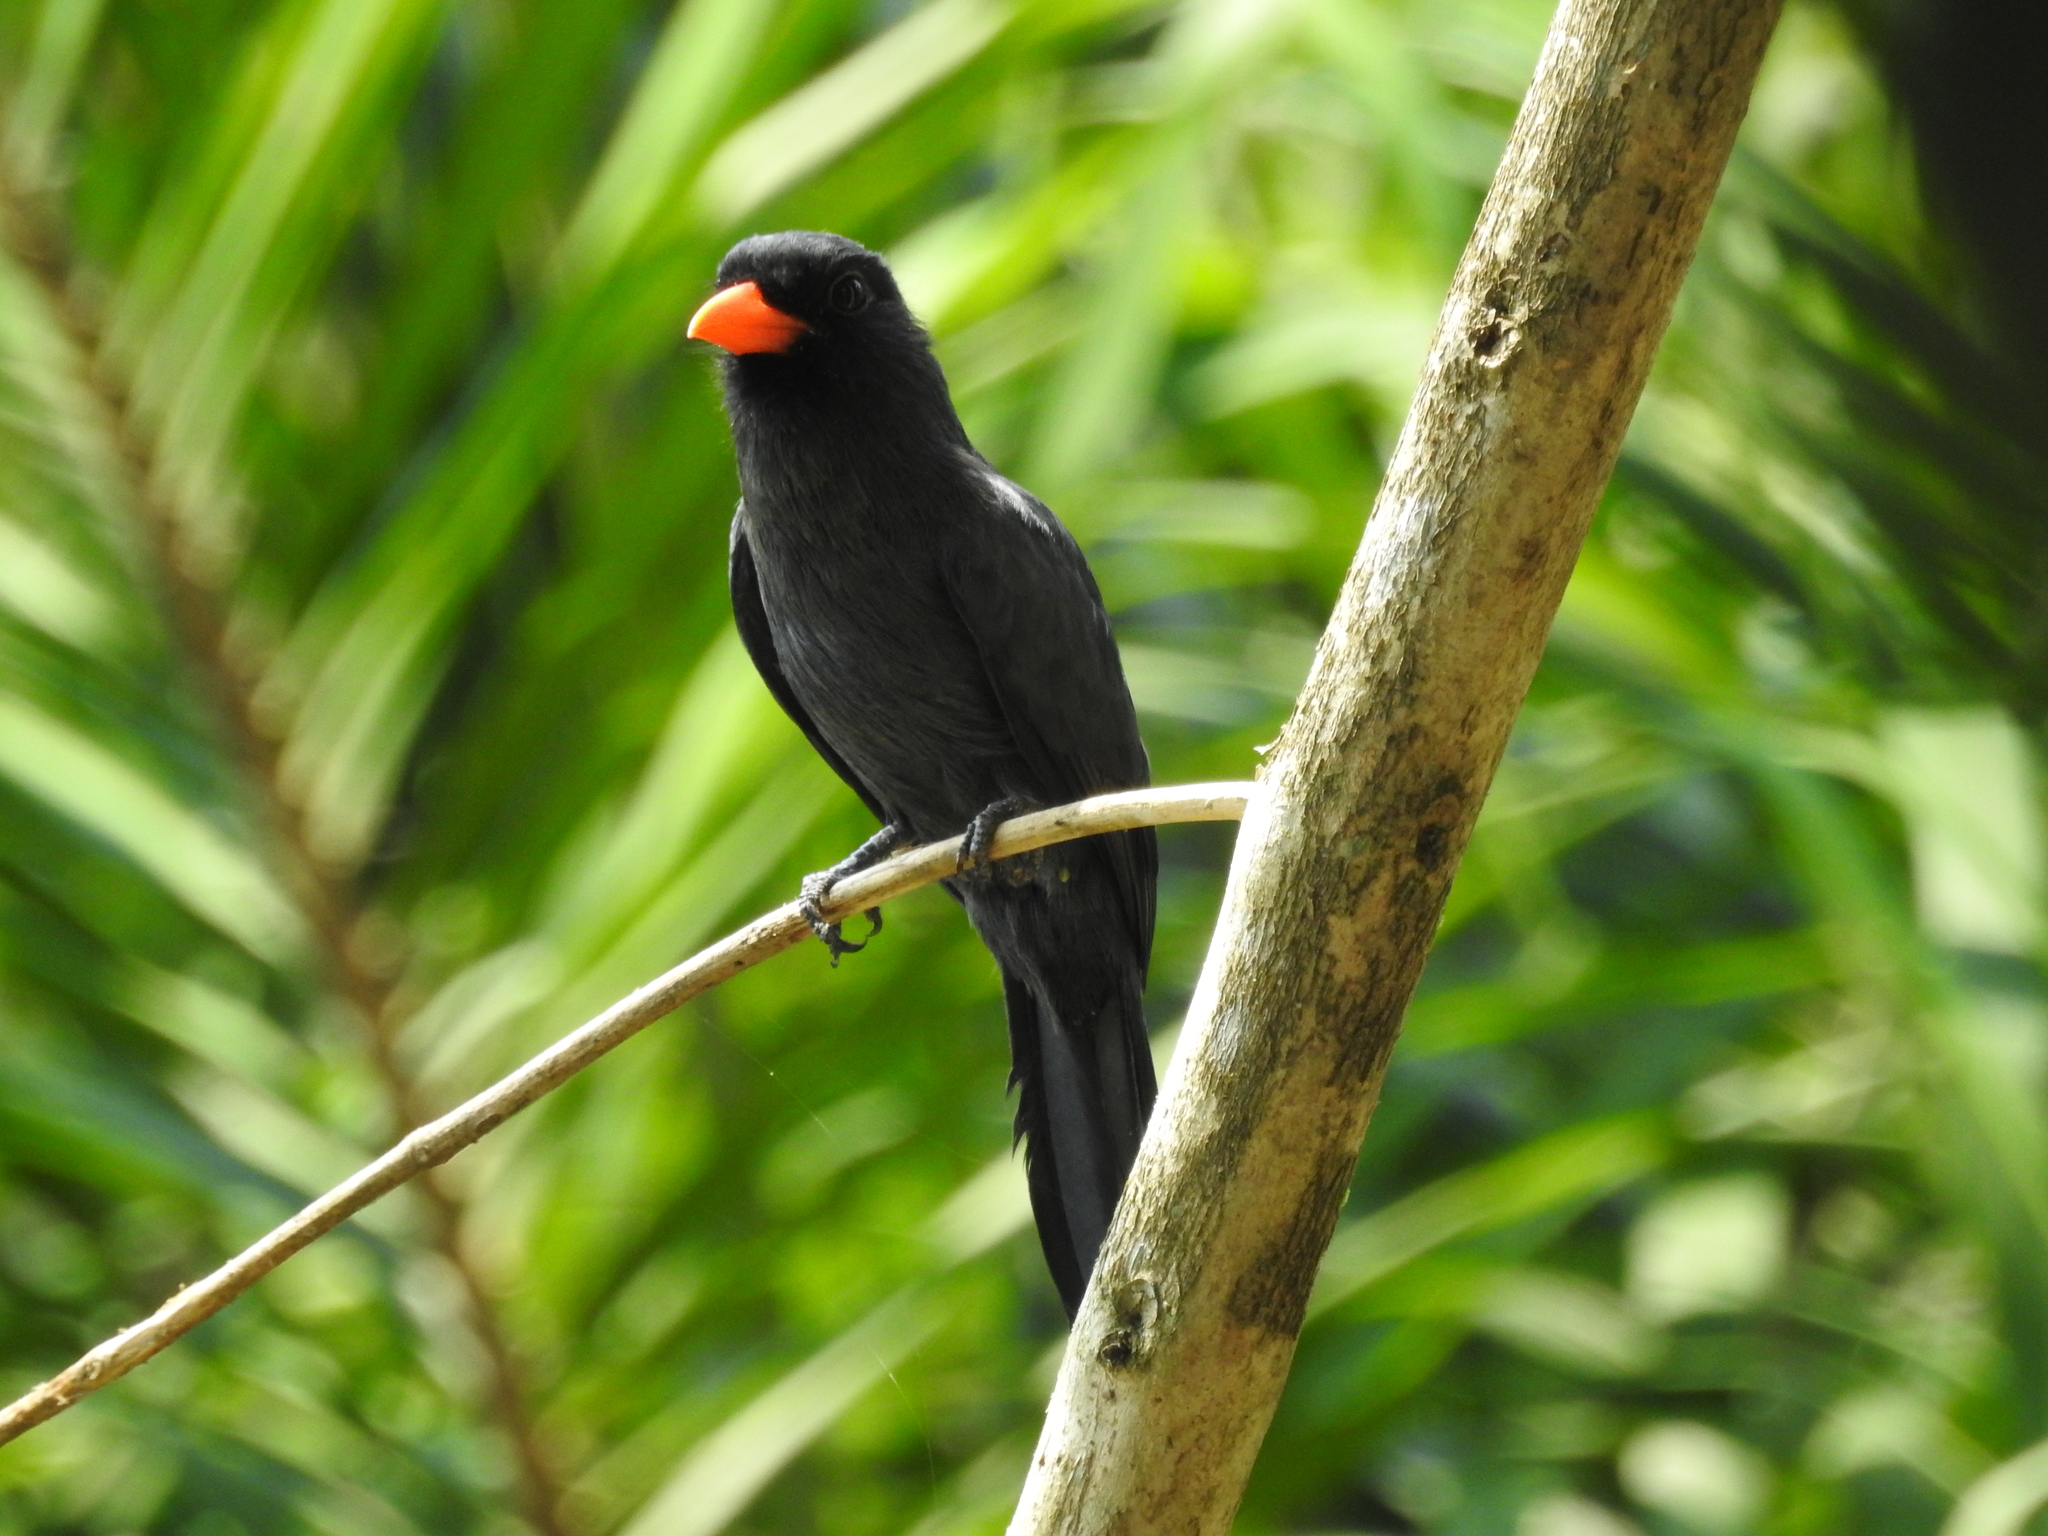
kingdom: Animalia
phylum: Chordata
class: Aves
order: Piciformes
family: Bucconidae
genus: Monasa
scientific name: Monasa nigrifrons
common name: Black-fronted nunbird
